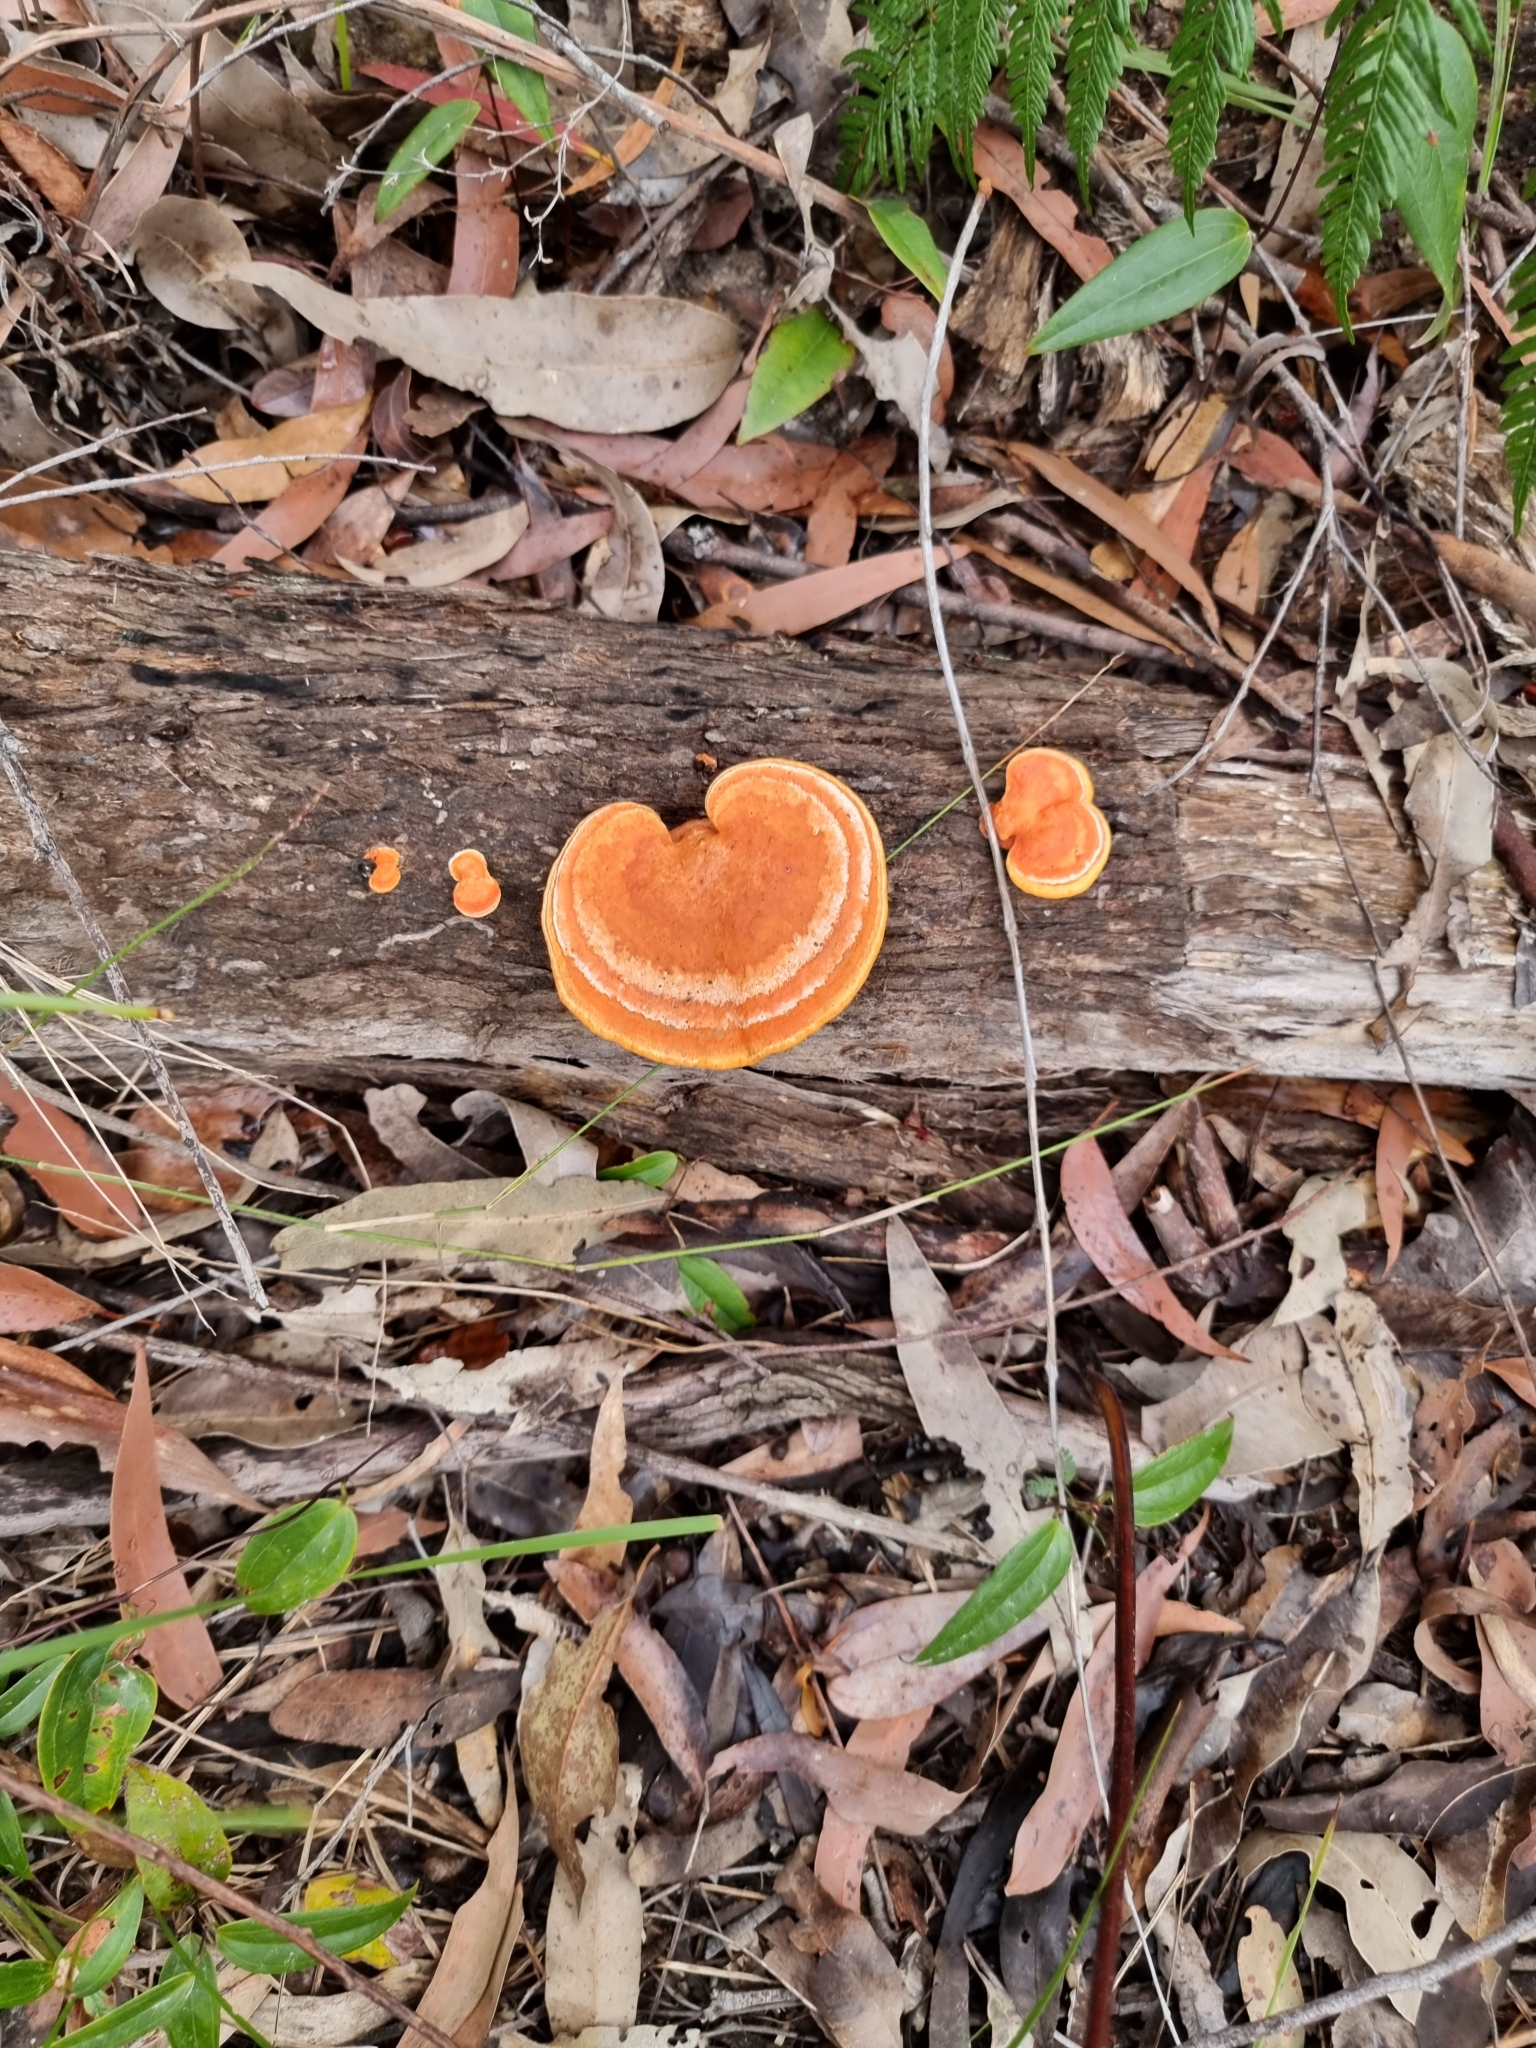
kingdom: Fungi
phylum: Basidiomycota
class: Agaricomycetes
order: Polyporales
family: Polyporaceae
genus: Trametes
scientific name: Trametes coccinea
